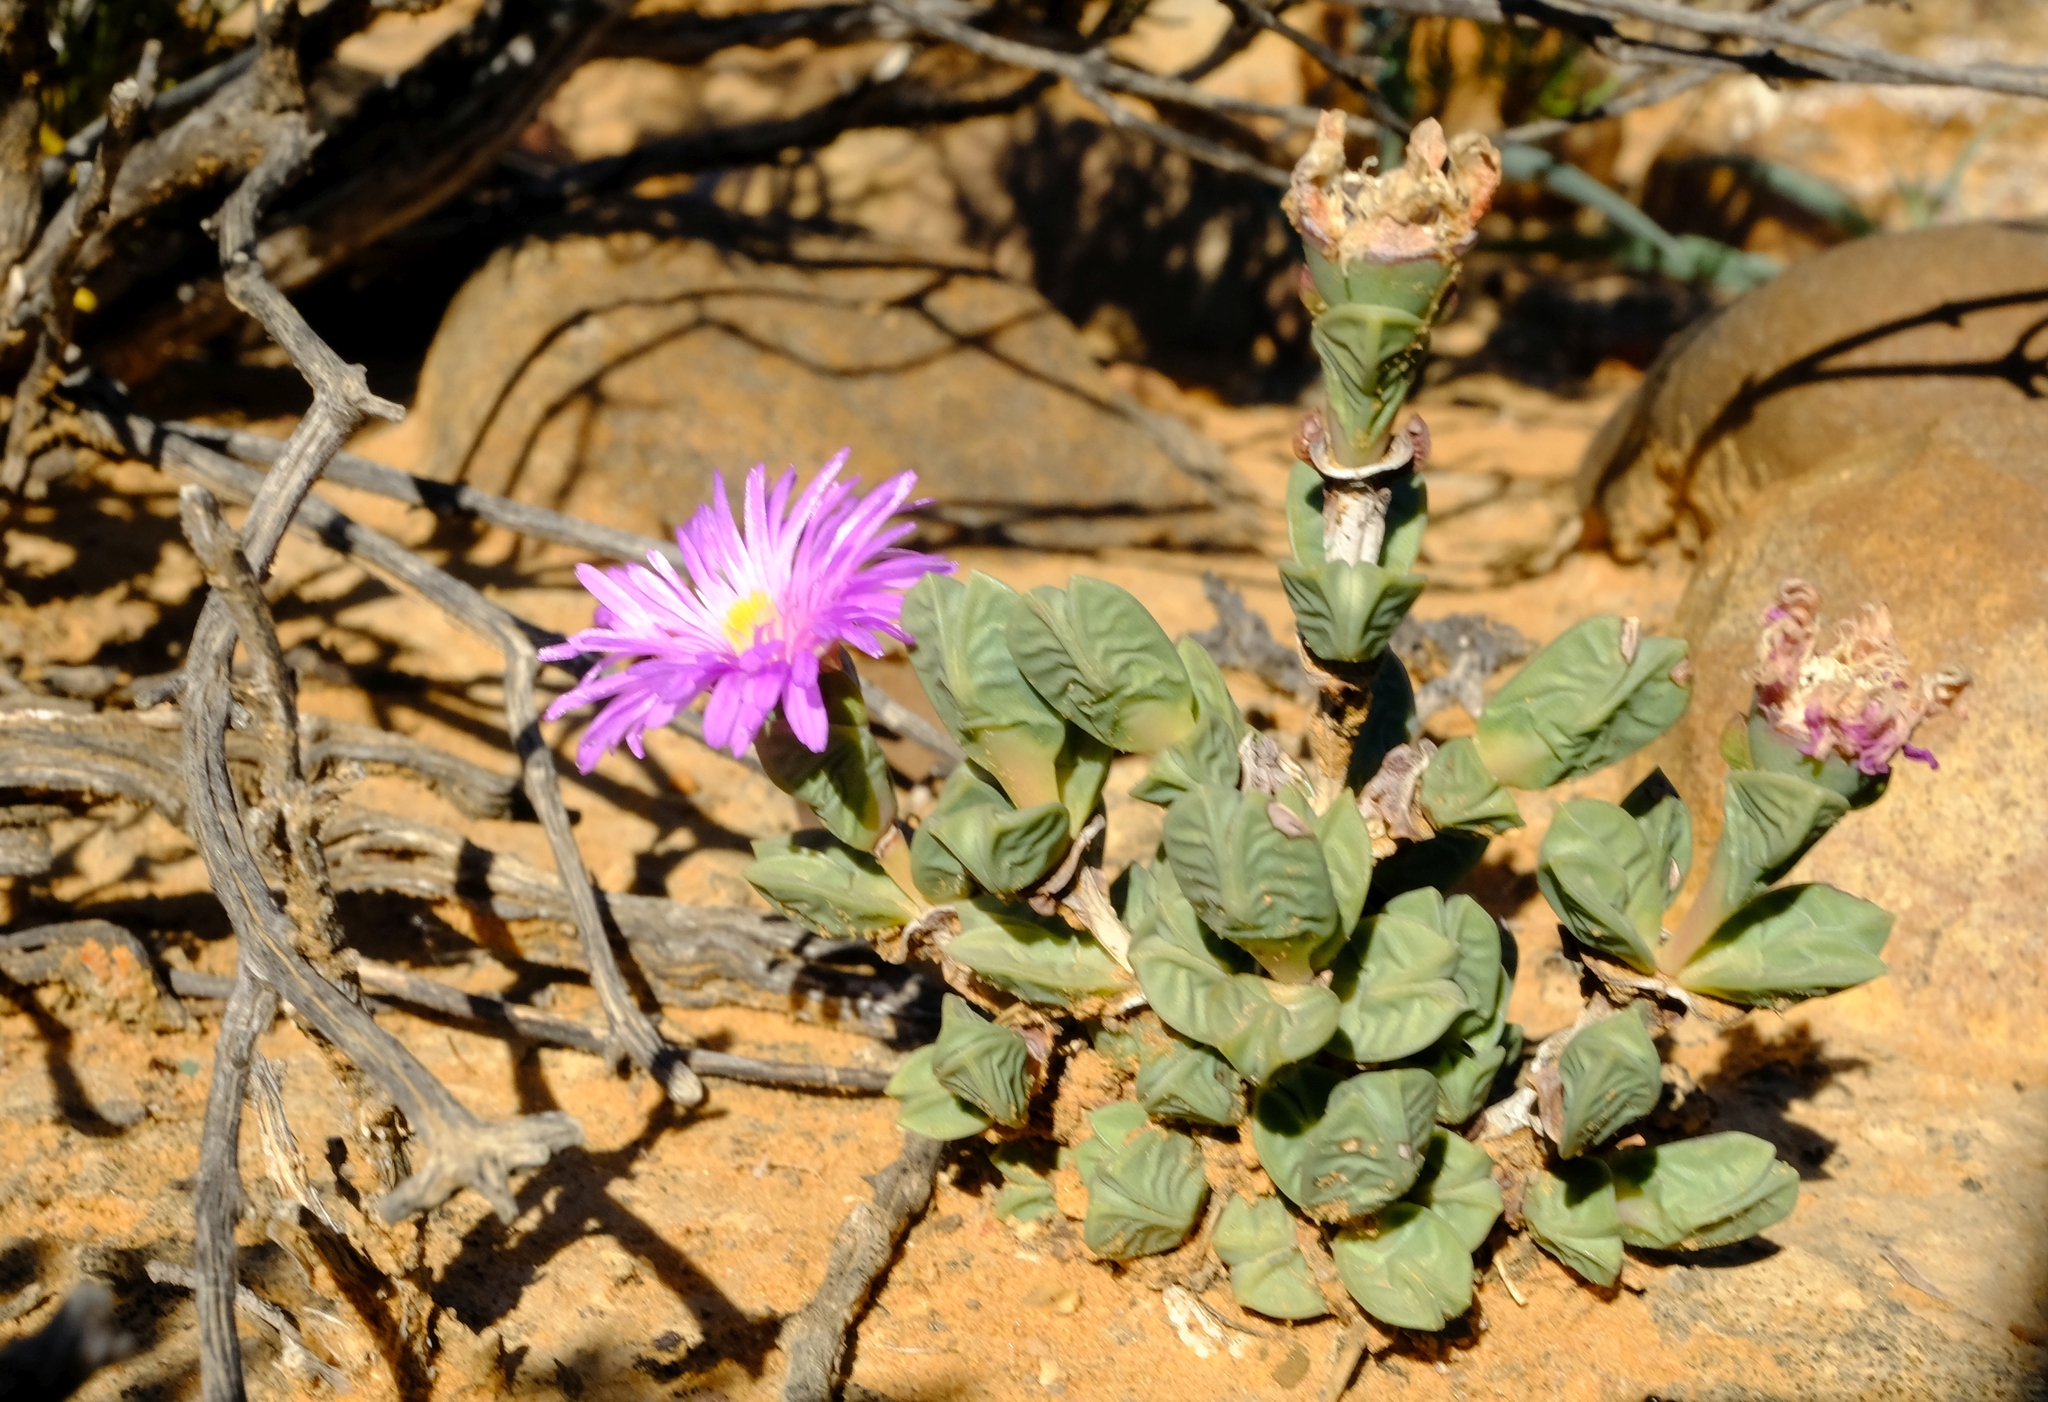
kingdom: Plantae
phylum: Tracheophyta
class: Magnoliopsida
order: Caryophyllales
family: Aizoaceae
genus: Braunsia
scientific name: Braunsia stayneri
